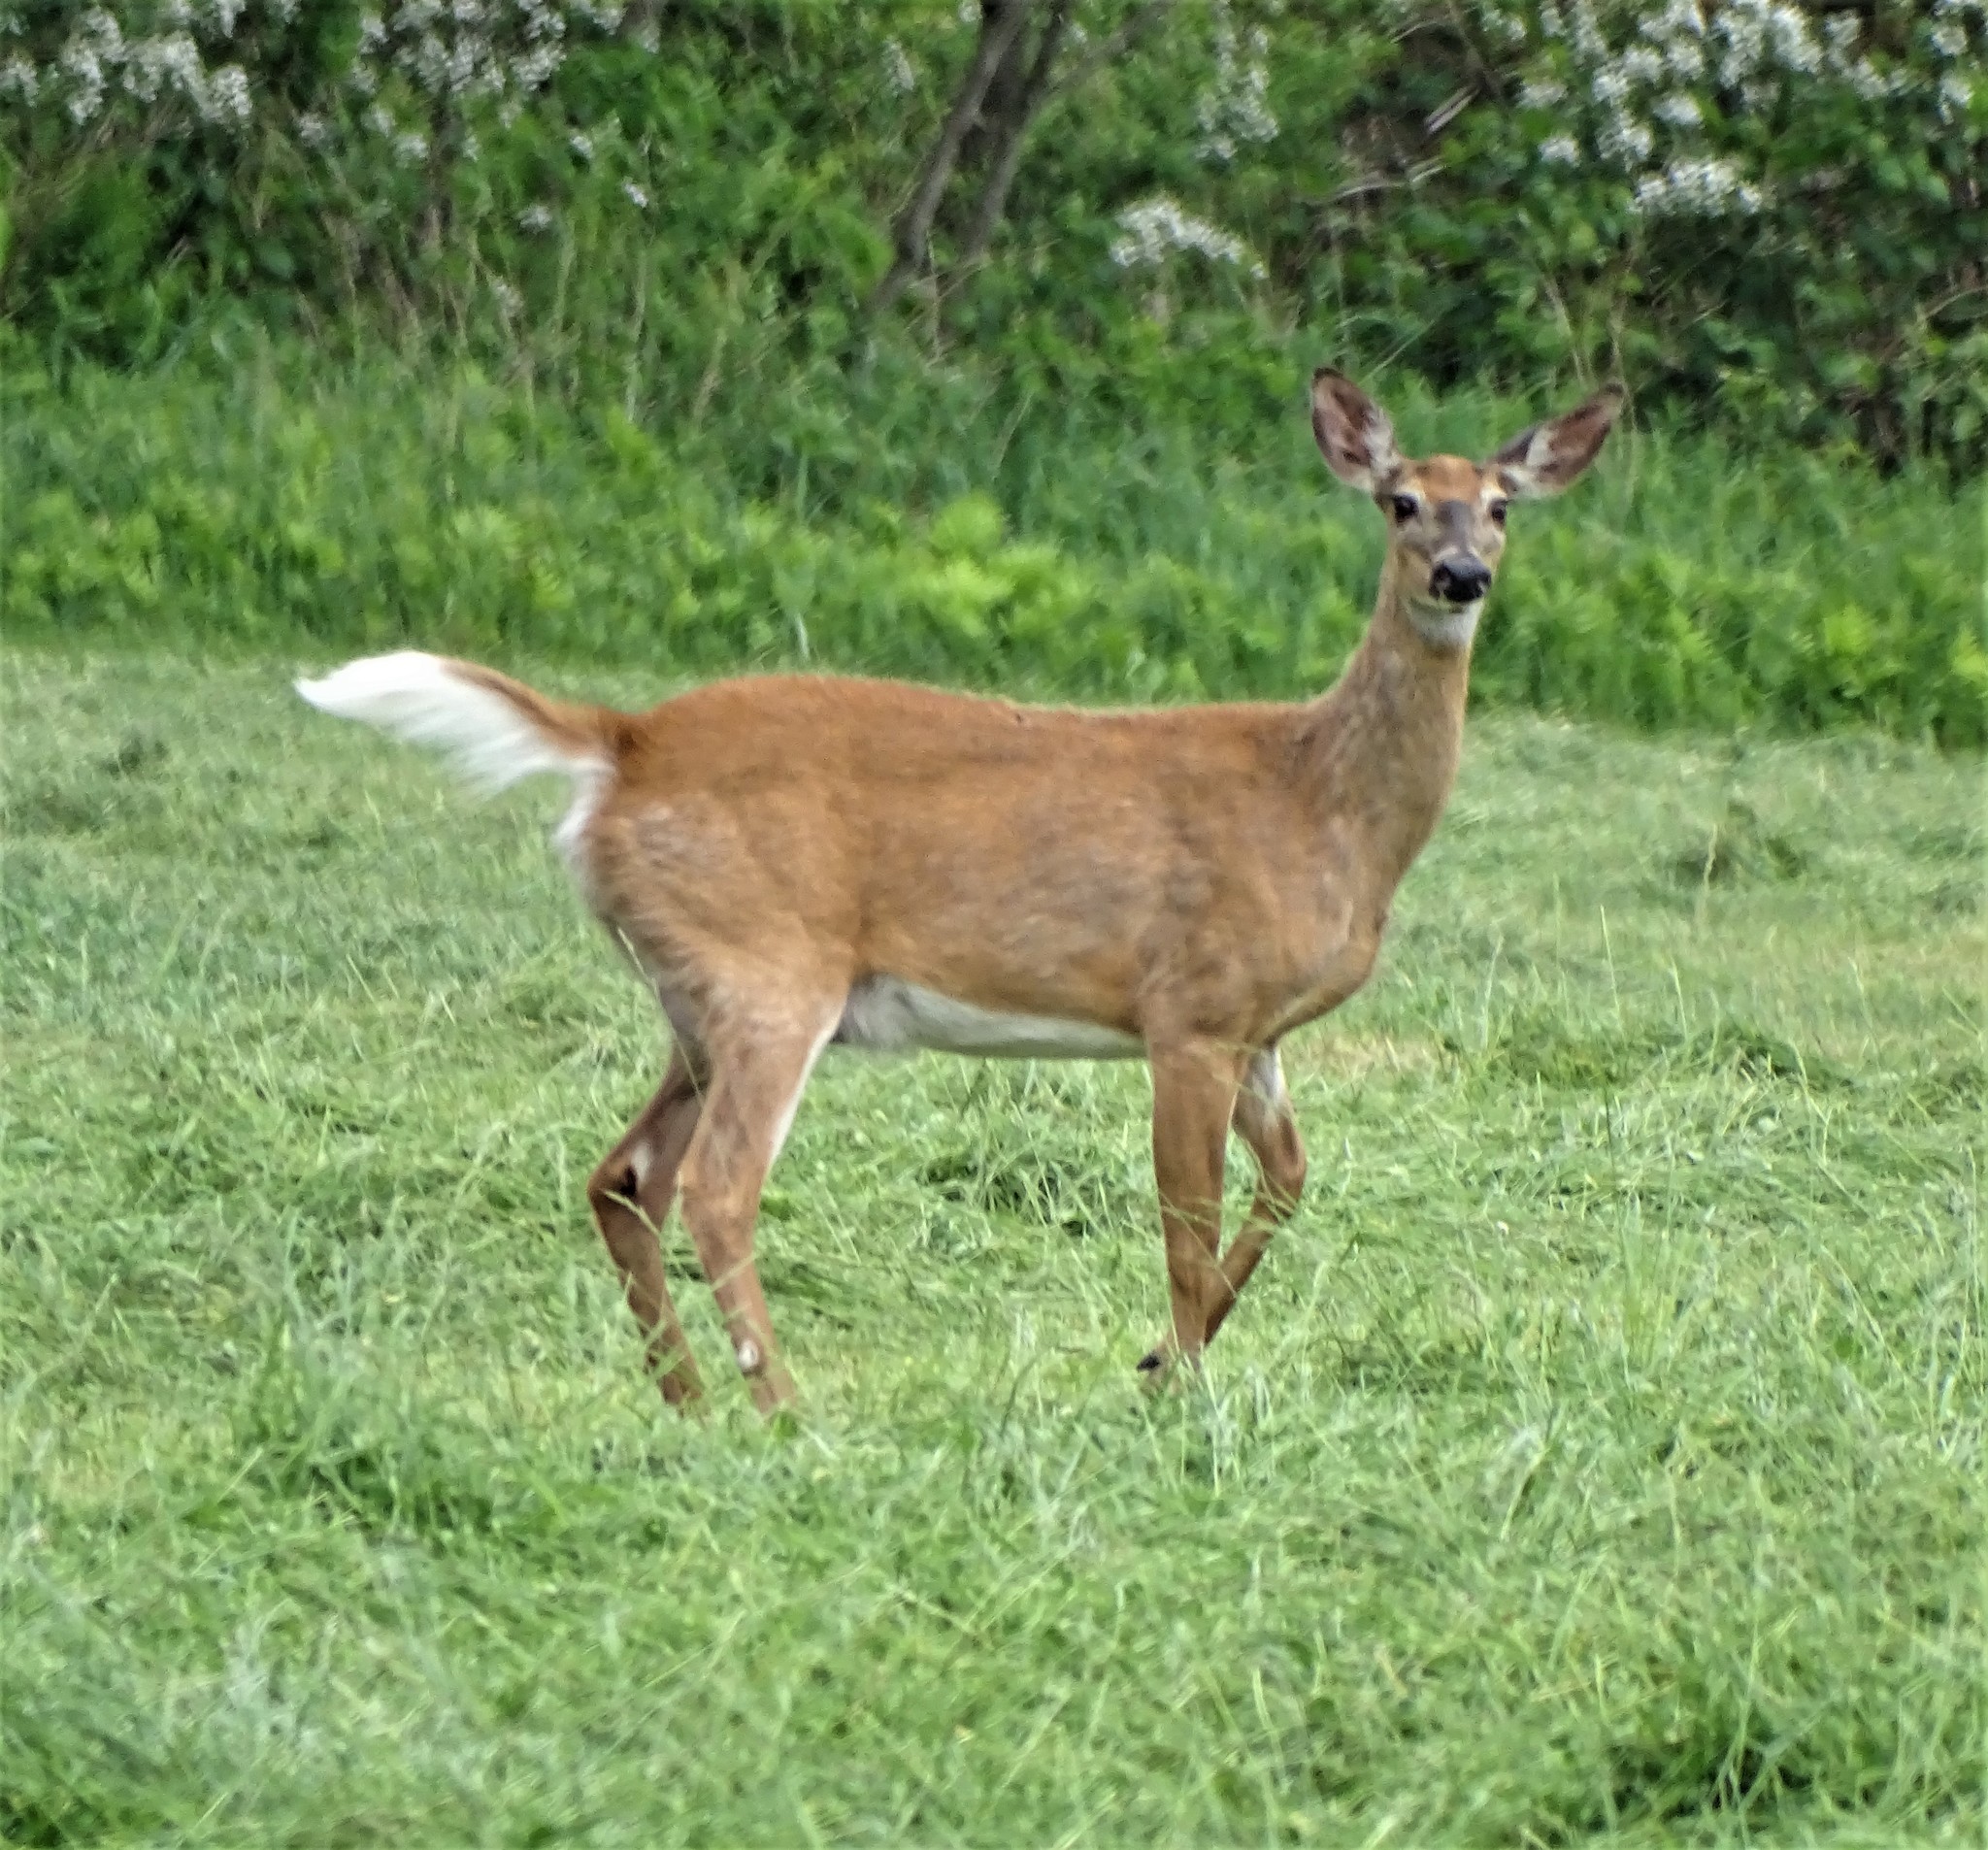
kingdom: Animalia
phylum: Chordata
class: Mammalia
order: Artiodactyla
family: Cervidae
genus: Odocoileus
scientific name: Odocoileus virginianus
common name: White-tailed deer
